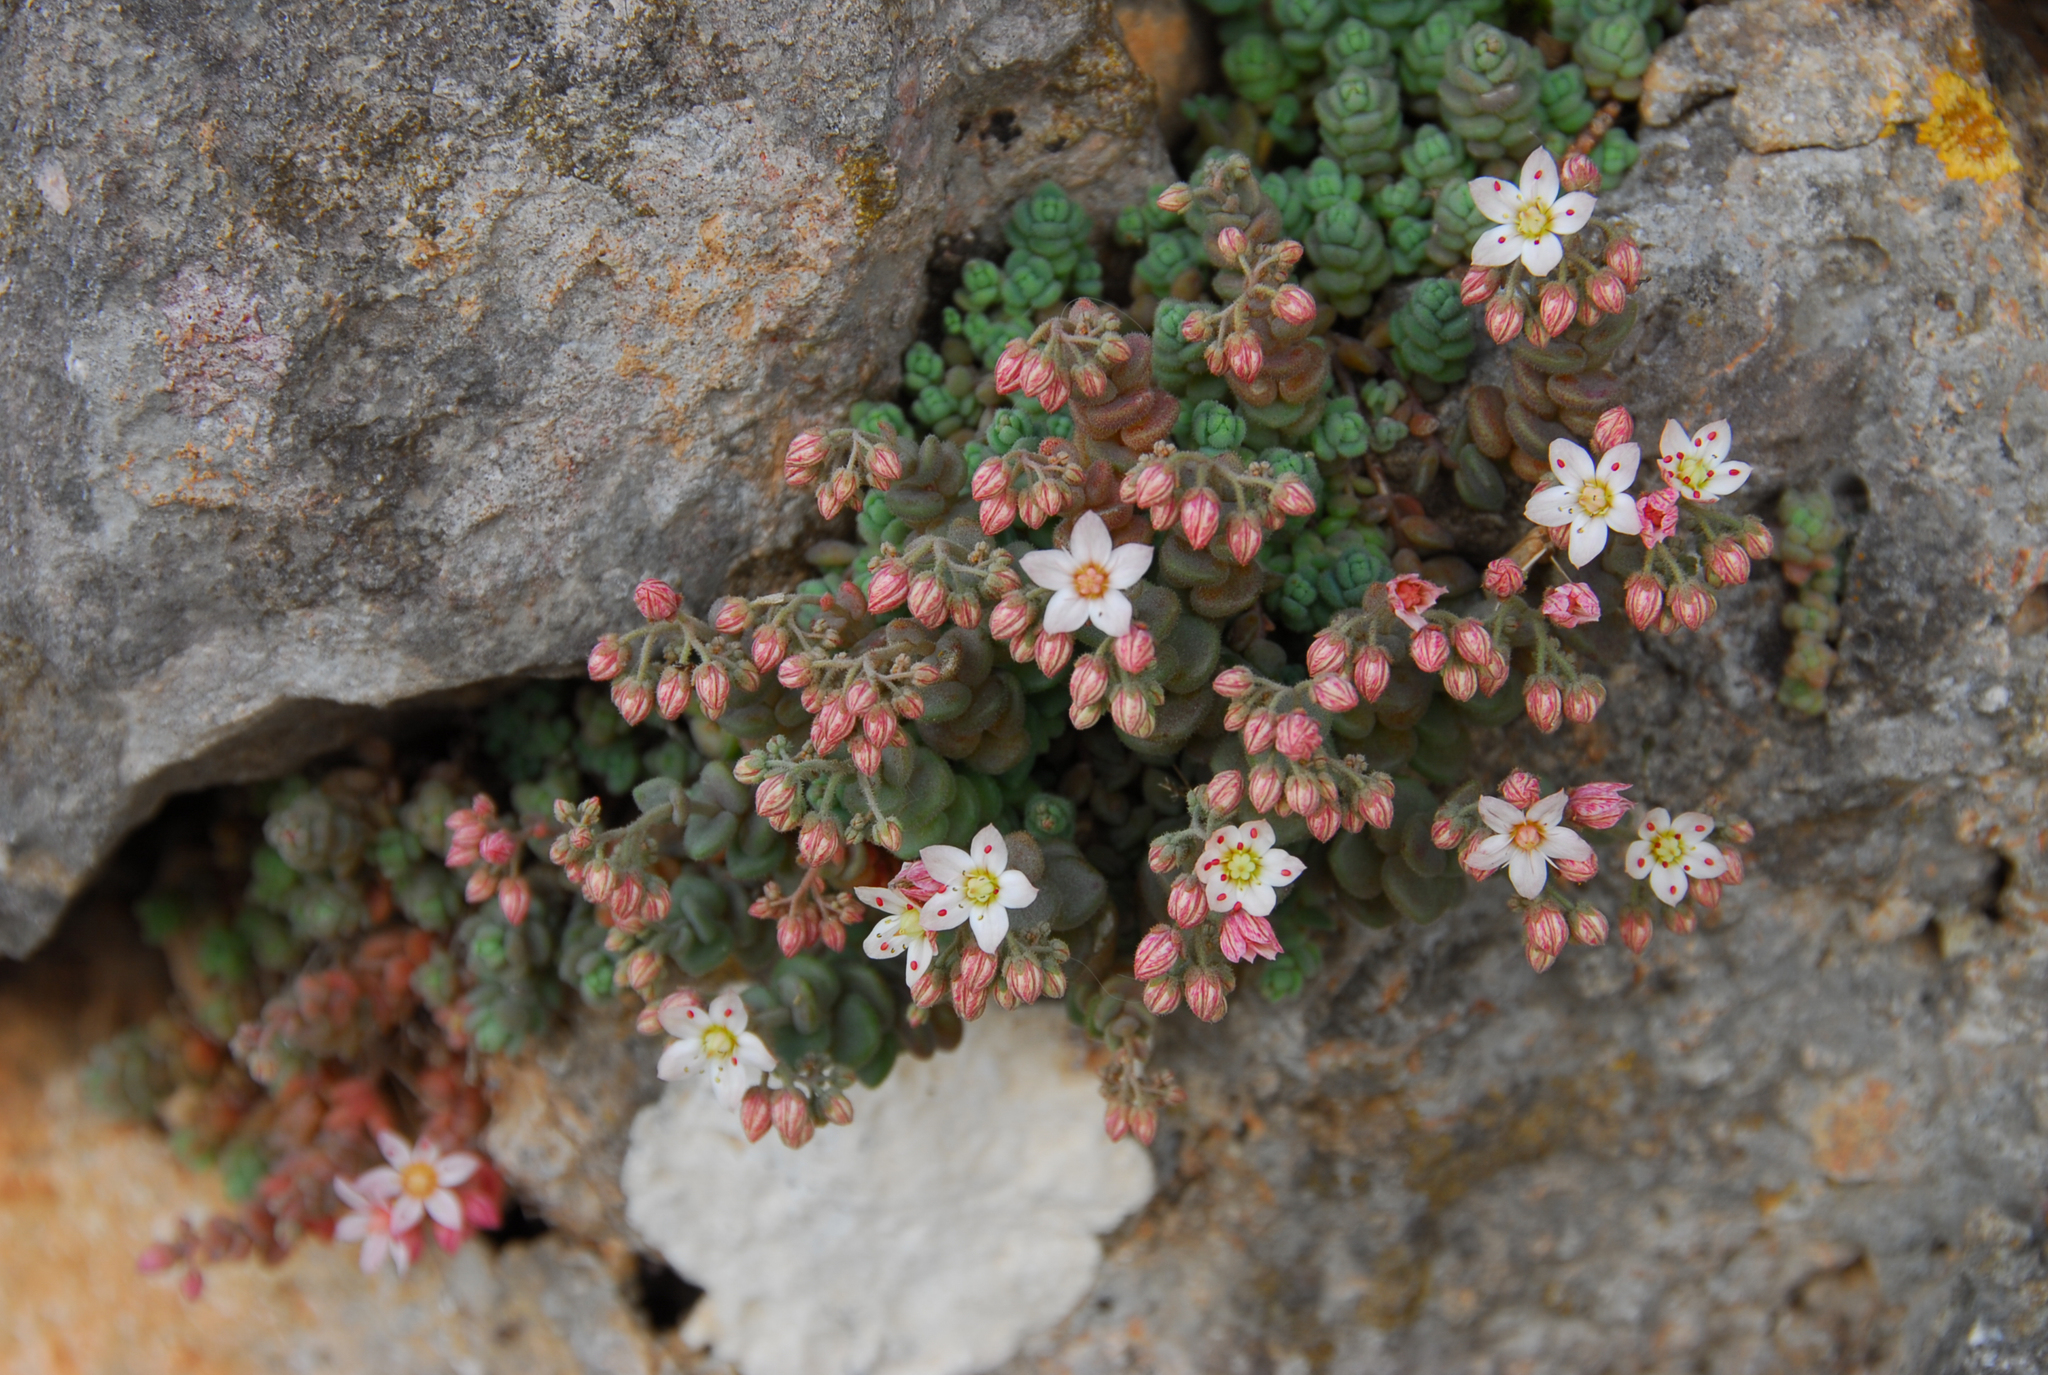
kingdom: Plantae
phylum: Tracheophyta
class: Magnoliopsida
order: Saxifragales
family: Crassulaceae
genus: Sedum
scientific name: Sedum dasyphyllum
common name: Thick-leaf stonecrop
